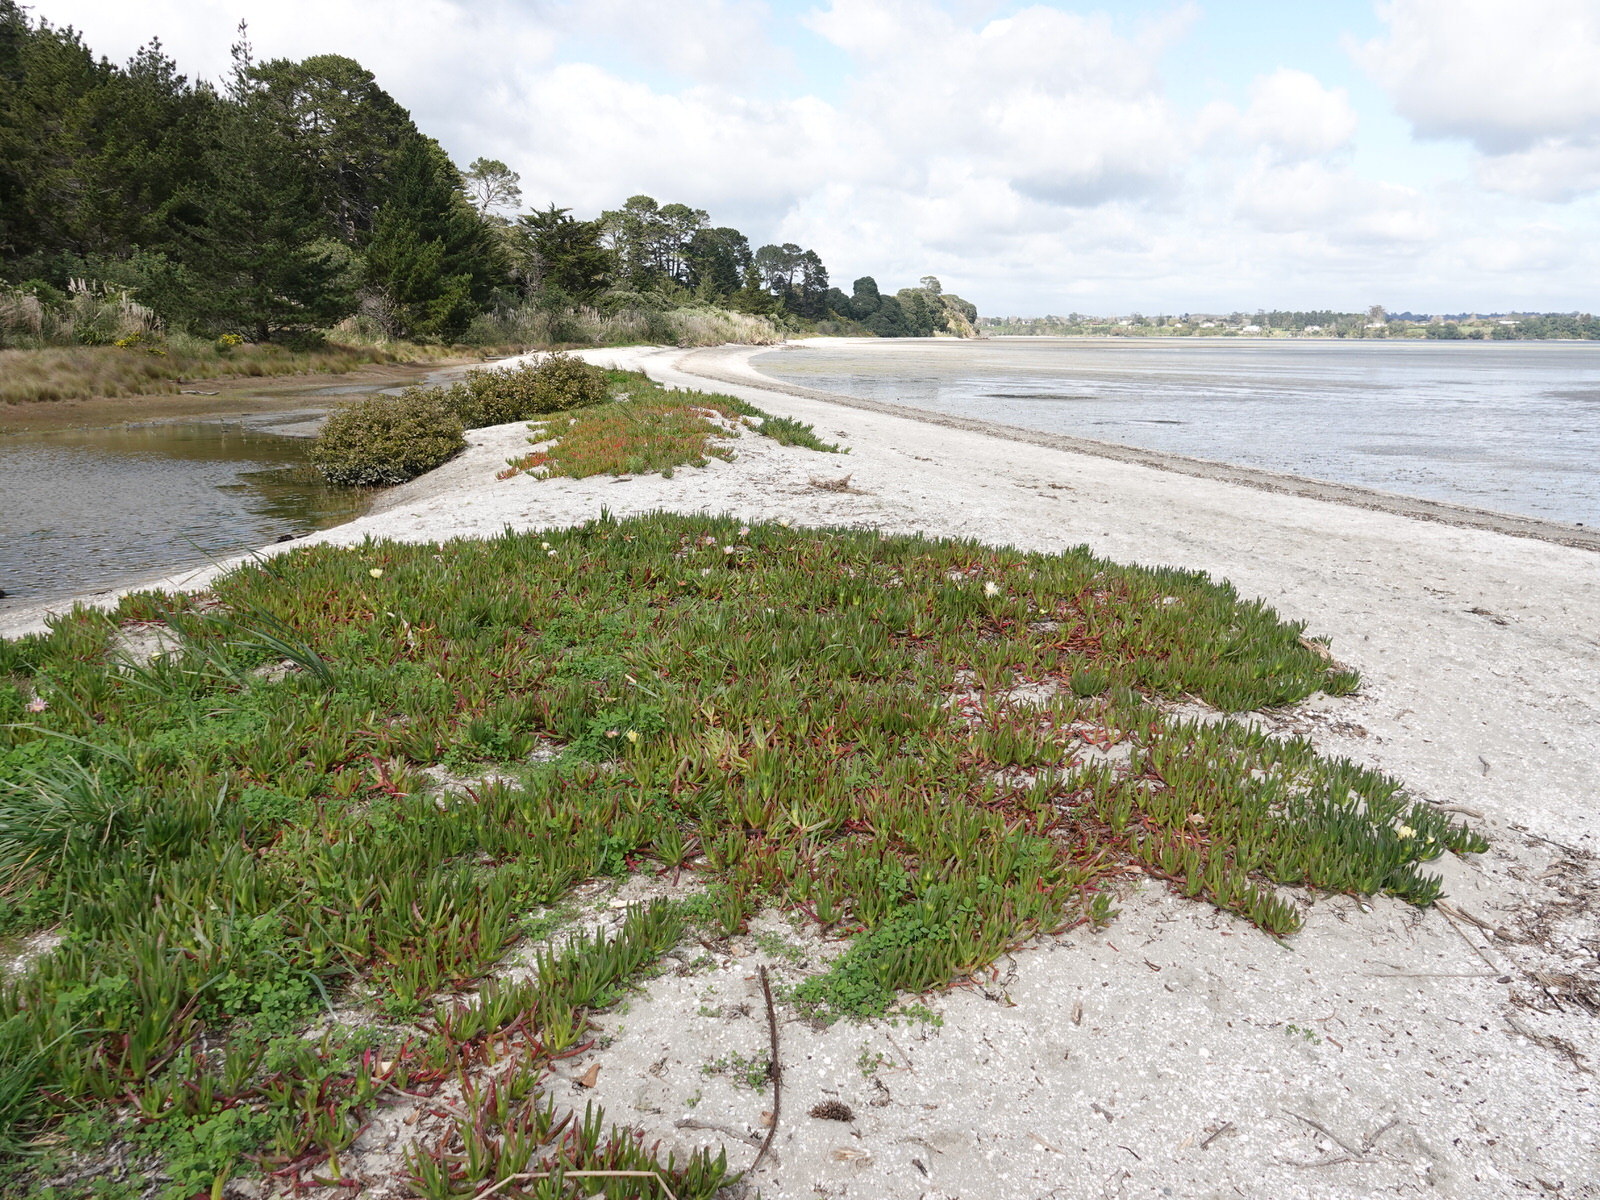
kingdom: Plantae
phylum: Tracheophyta
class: Magnoliopsida
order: Caryophyllales
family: Aizoaceae
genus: Carpobrotus
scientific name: Carpobrotus edulis
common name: Hottentot-fig
